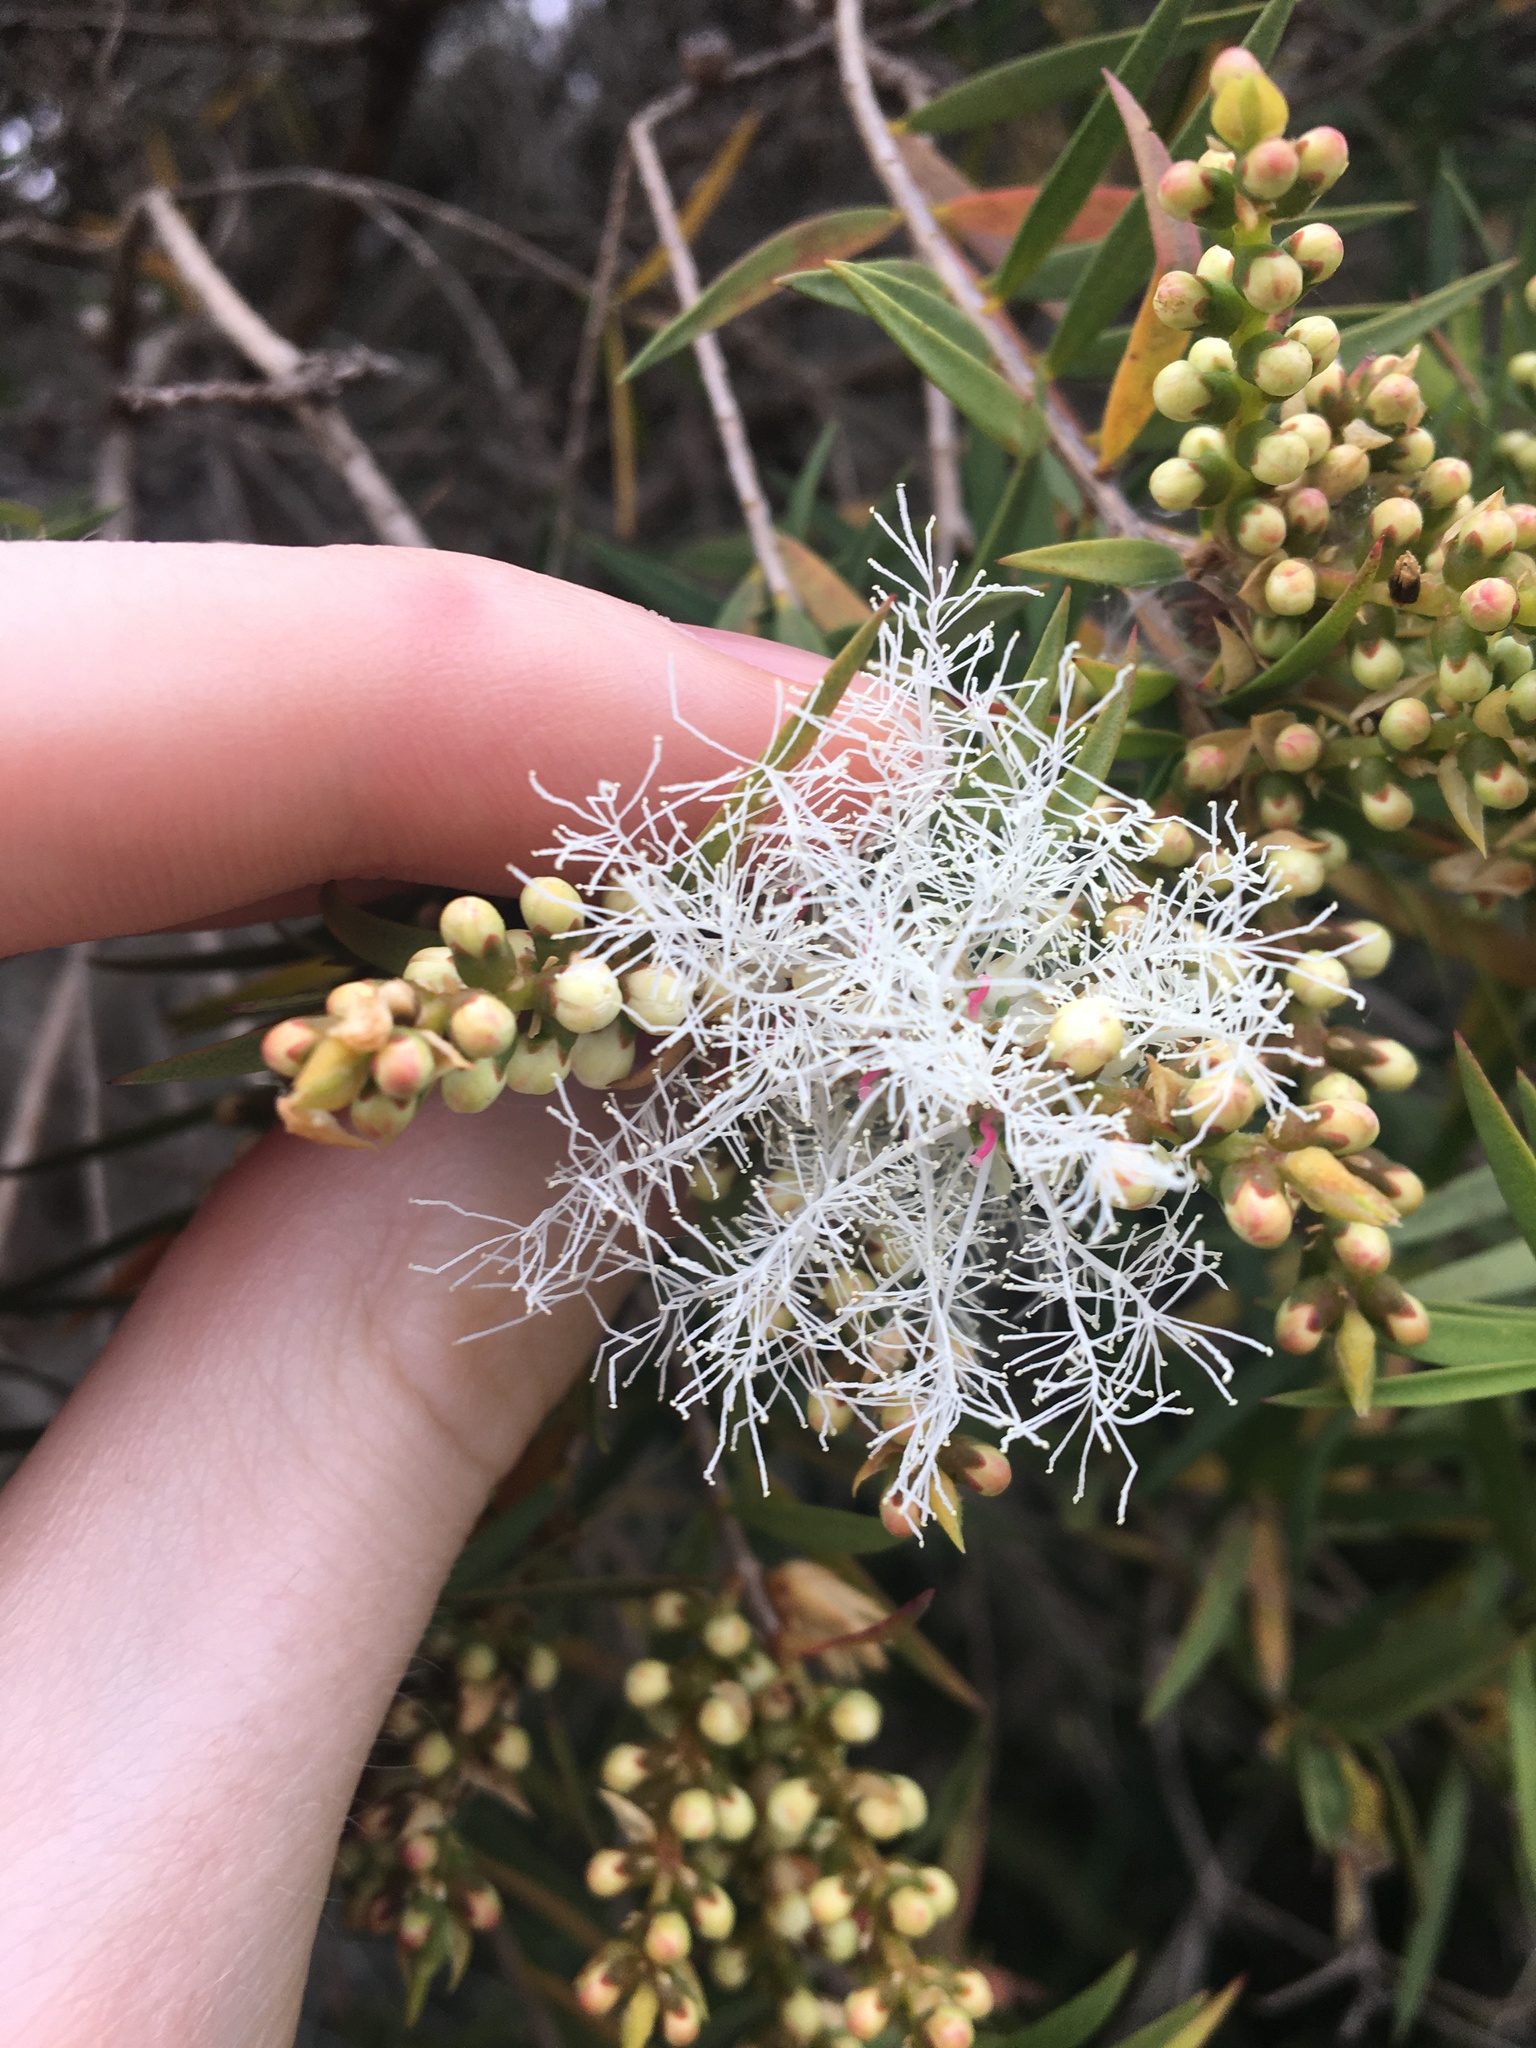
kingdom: Plantae
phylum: Tracheophyta
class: Magnoliopsida
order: Myrtales
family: Myrtaceae
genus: Melaleuca
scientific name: Melaleuca linariifolia
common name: Cajeput tree
